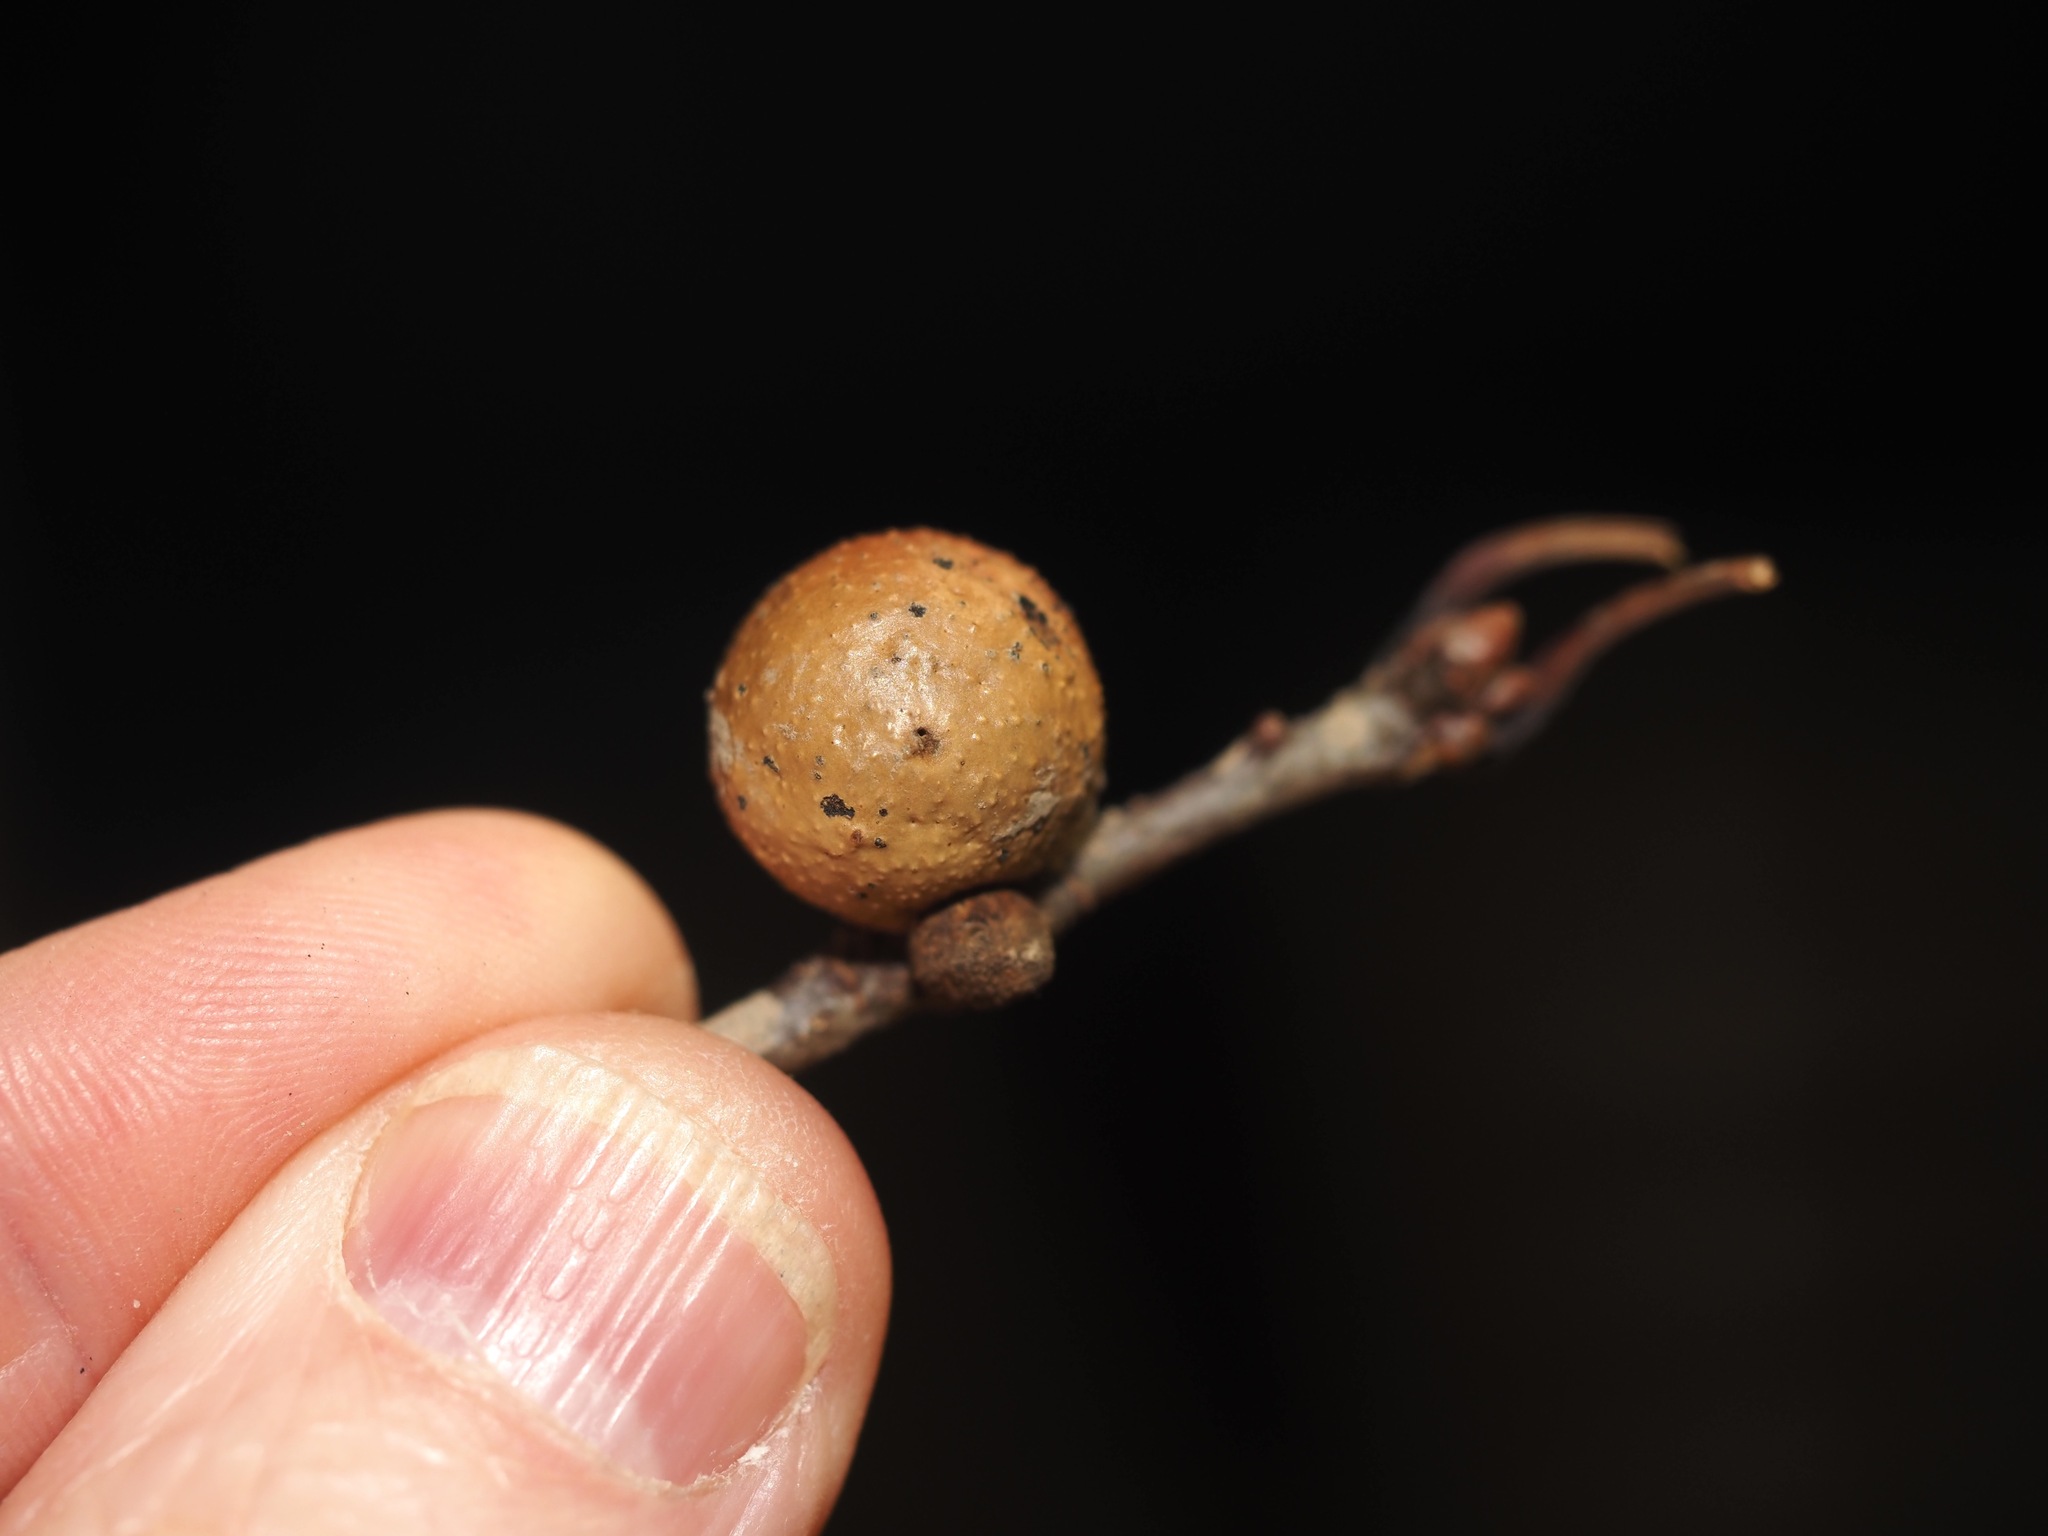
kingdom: Animalia
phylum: Arthropoda
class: Insecta
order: Hymenoptera
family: Cynipidae
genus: Disholcaspis
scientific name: Disholcaspis quercusglobulus
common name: Round bullet gall wasp
